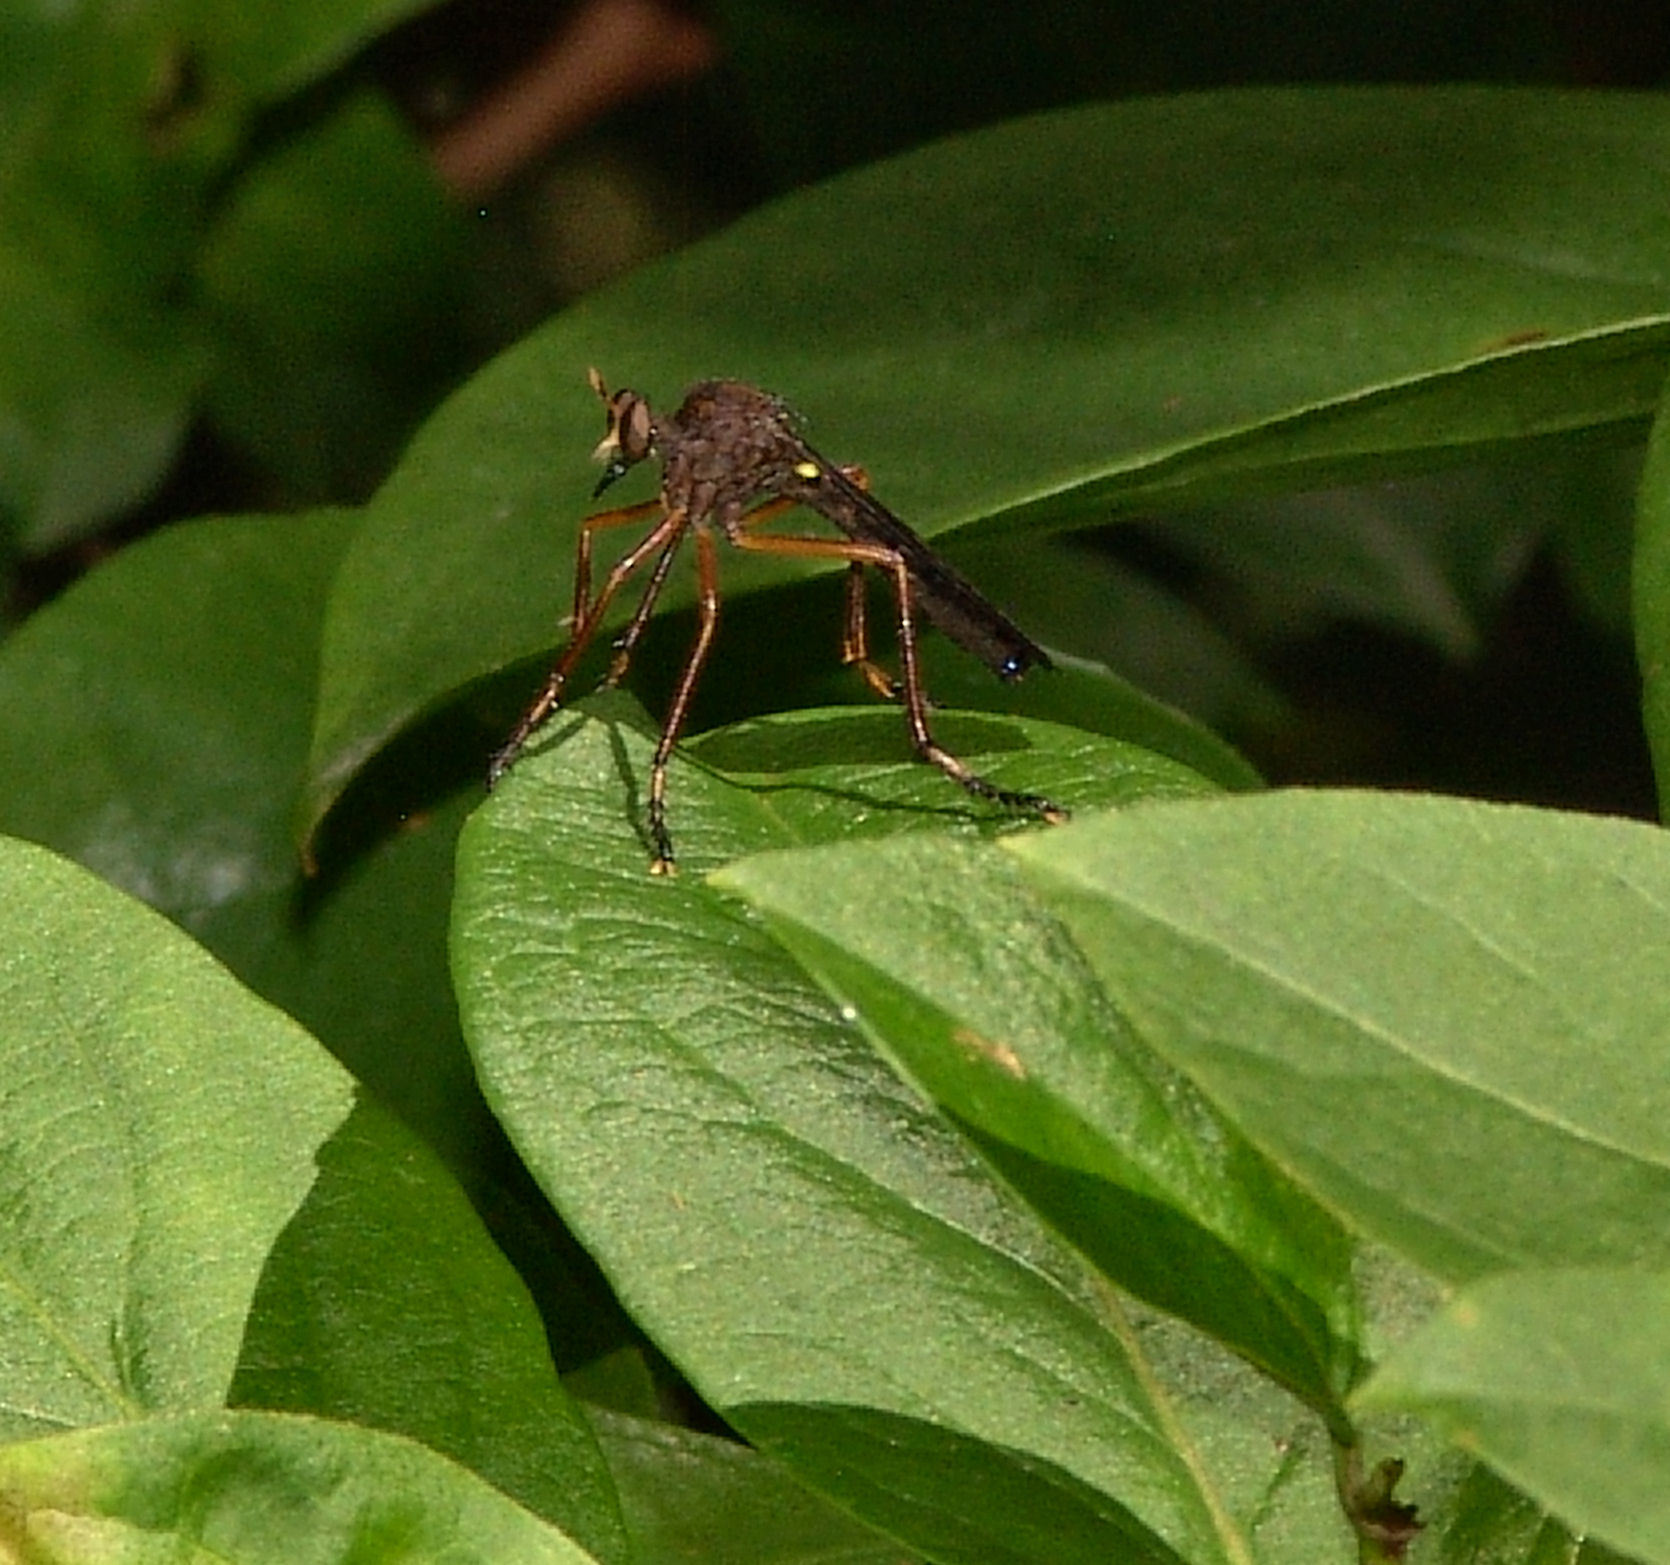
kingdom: Animalia
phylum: Arthropoda
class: Insecta
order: Diptera
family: Asilidae
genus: Diogmites
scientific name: Diogmites platypterus
